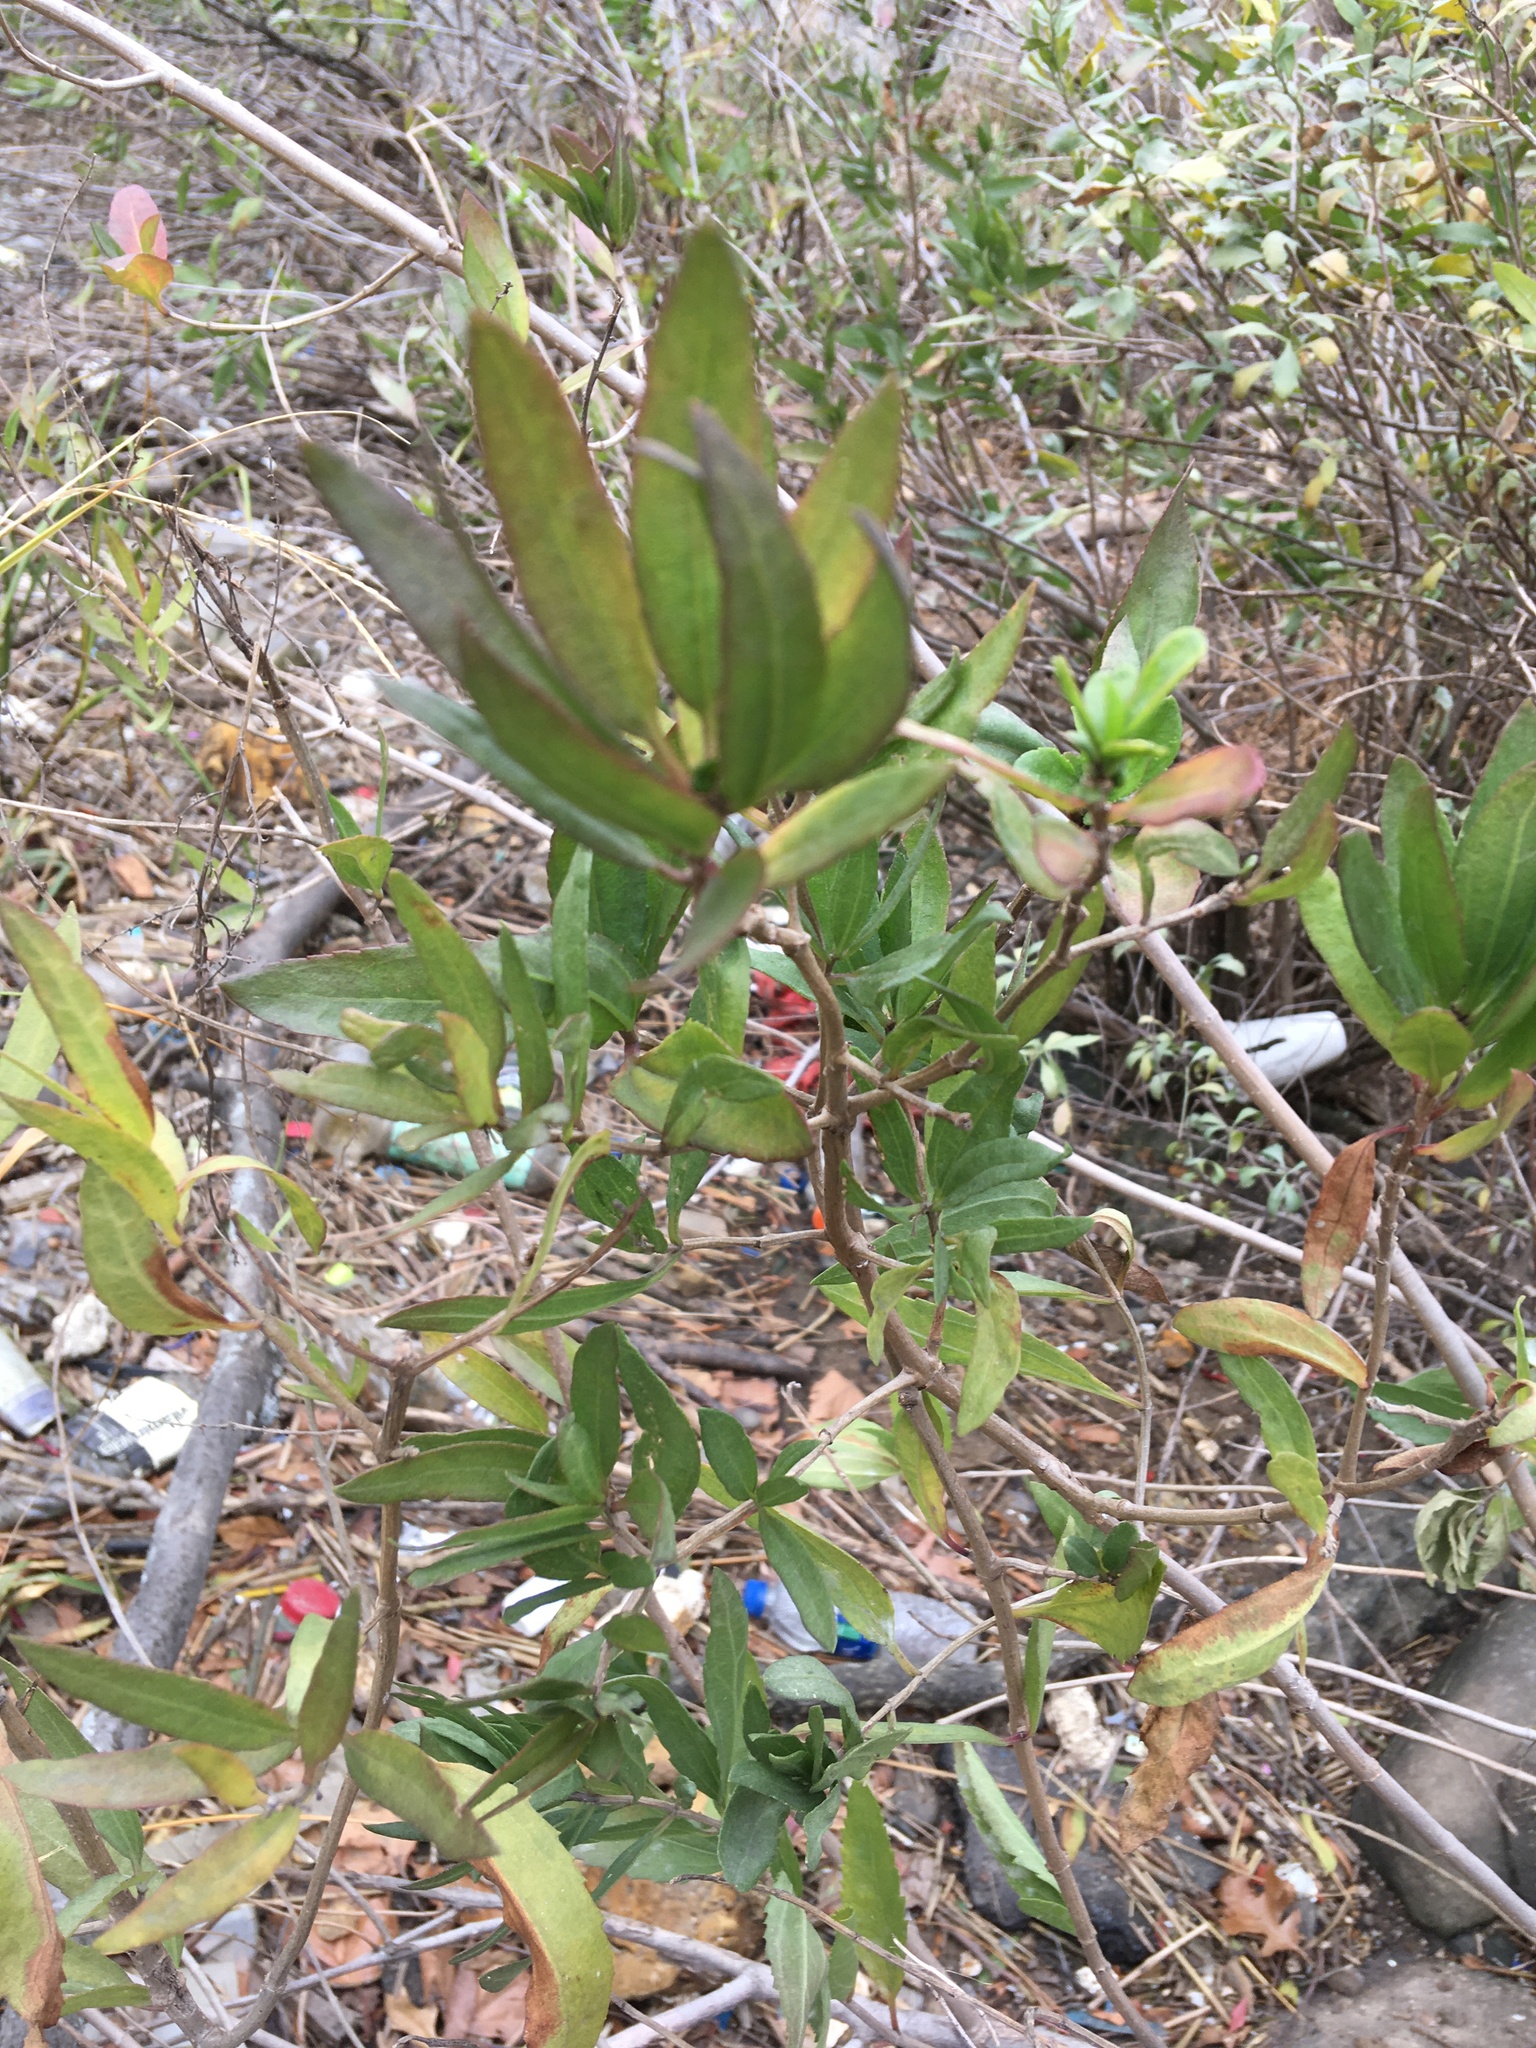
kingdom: Plantae
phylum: Tracheophyta
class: Magnoliopsida
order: Asterales
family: Asteraceae
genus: Iva
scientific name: Iva frutescens
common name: Big-leaved marsh-elder
